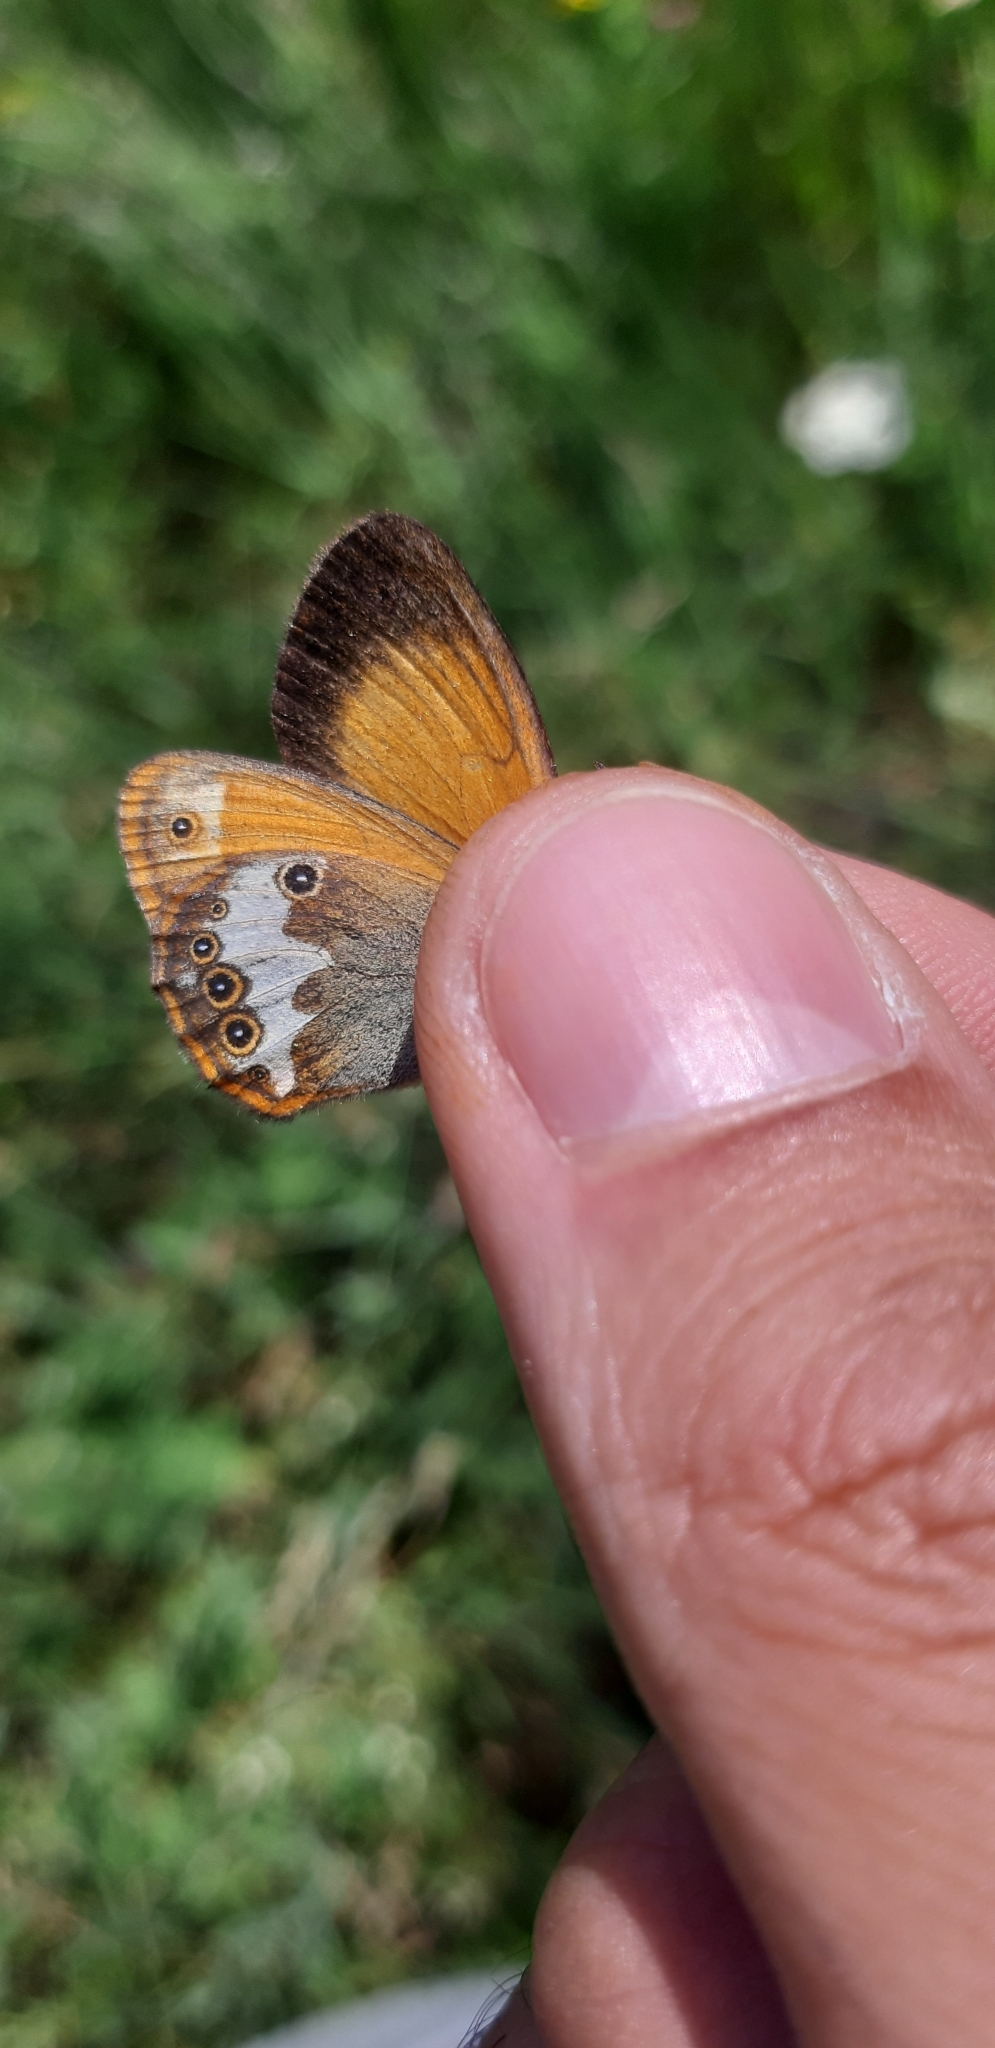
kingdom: Animalia
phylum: Arthropoda
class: Insecta
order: Lepidoptera
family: Nymphalidae
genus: Coenonympha
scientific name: Coenonympha arcania
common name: Pearly heath
